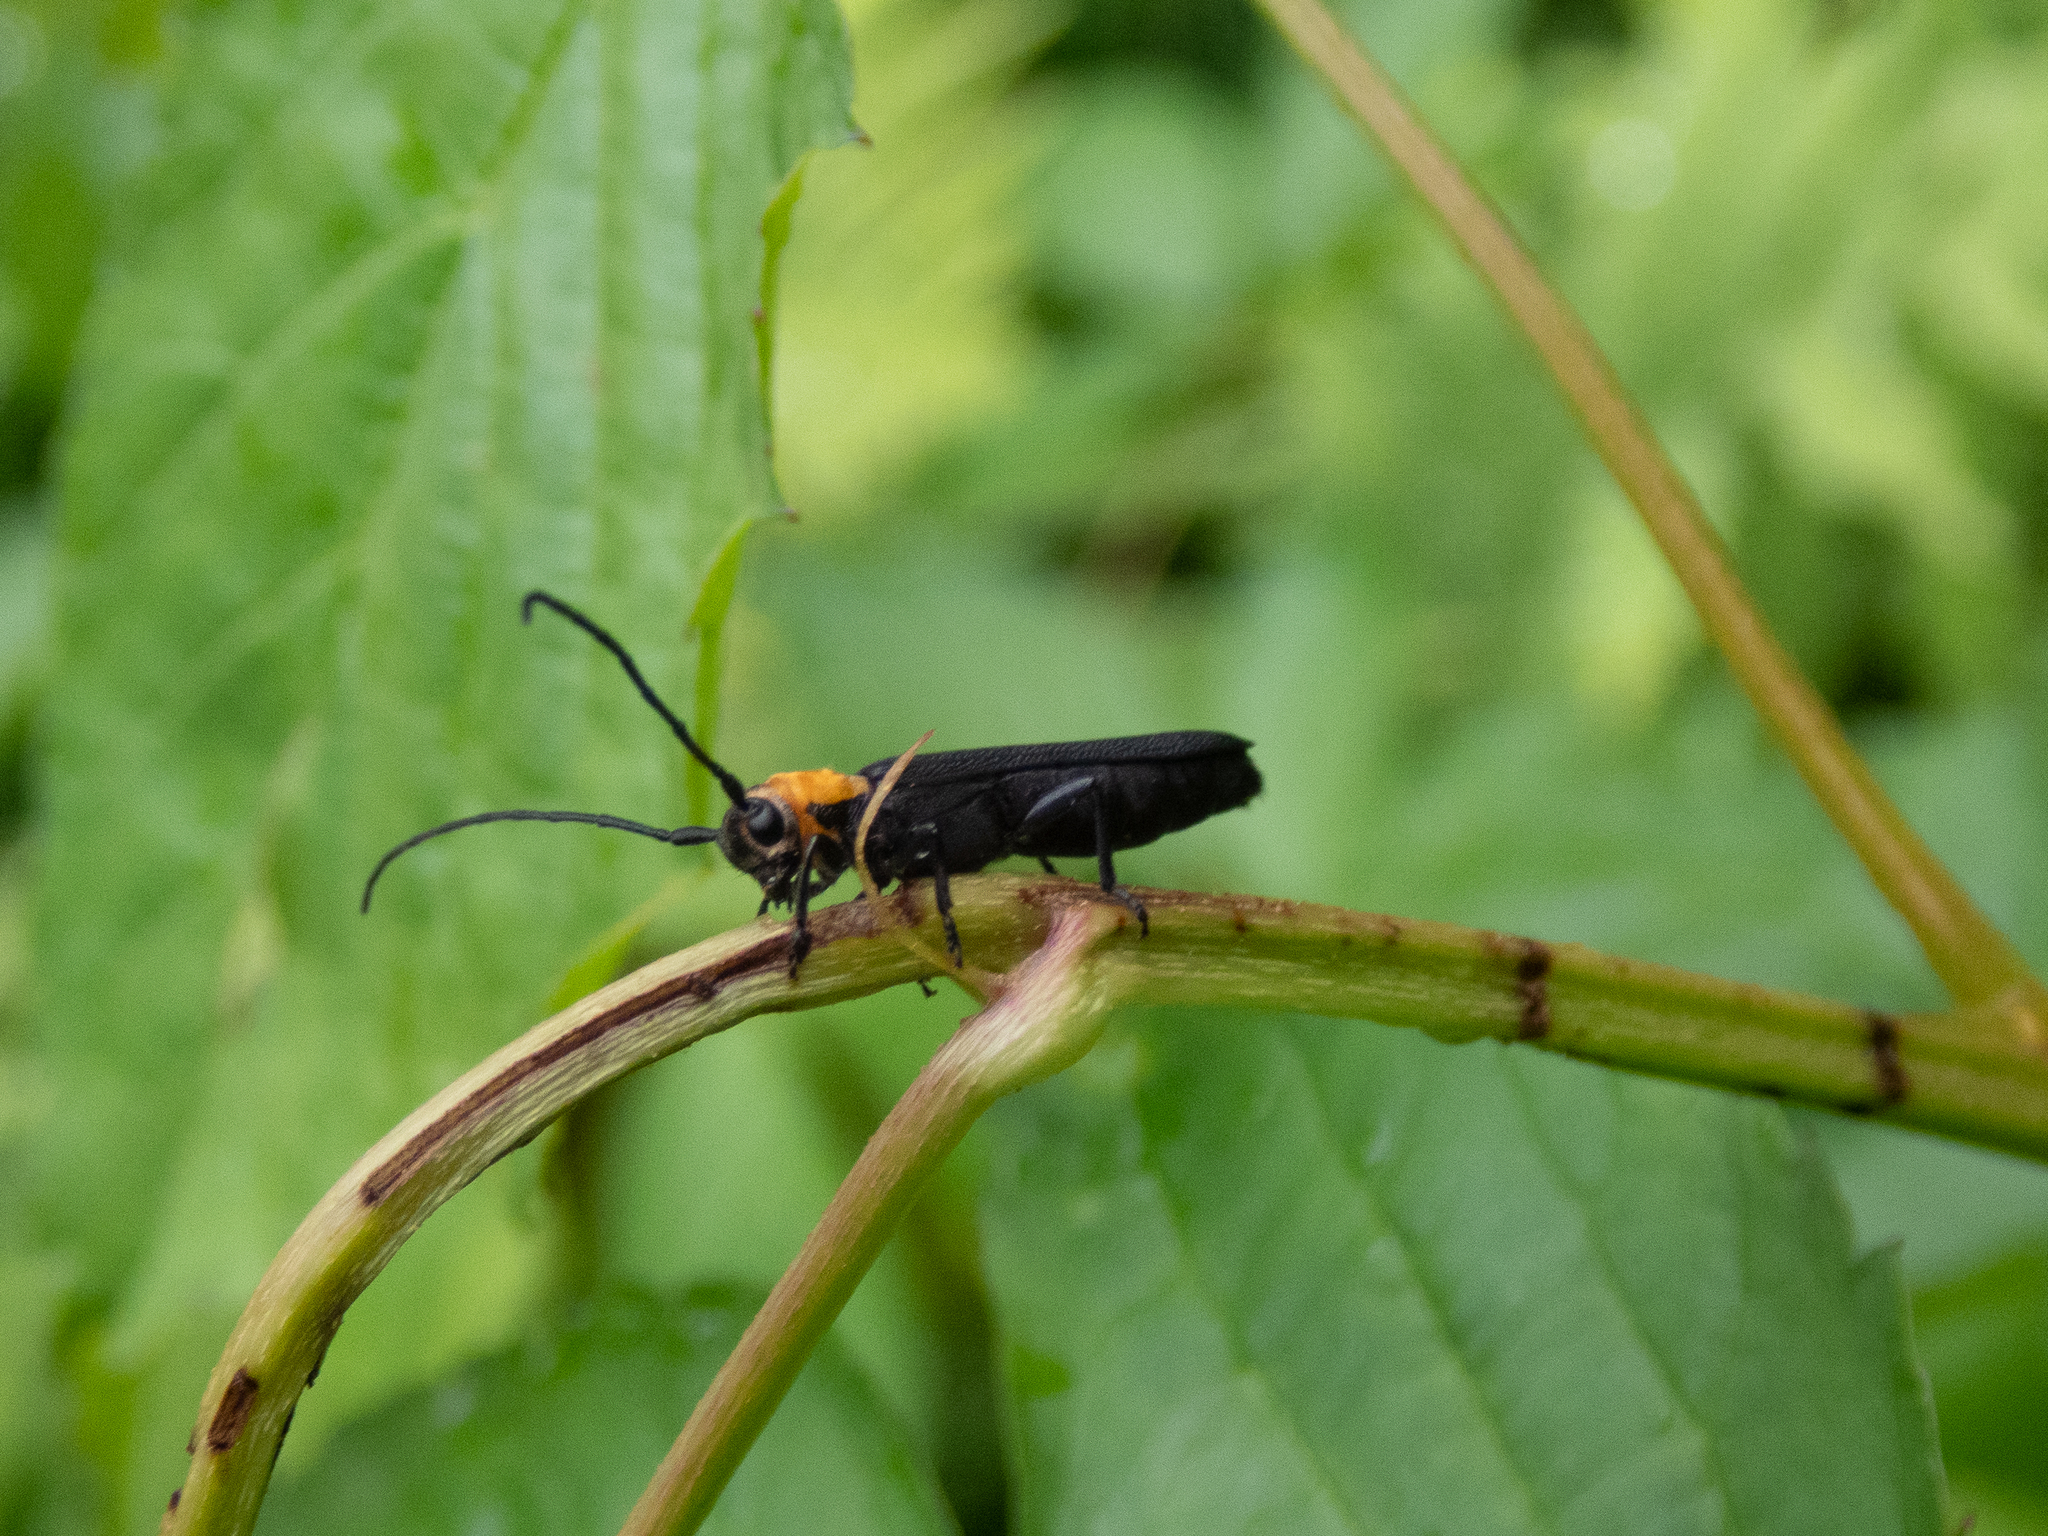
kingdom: Animalia
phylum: Arthropoda
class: Insecta
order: Coleoptera
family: Cerambycidae
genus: Oberea
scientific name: Oberea affinis
